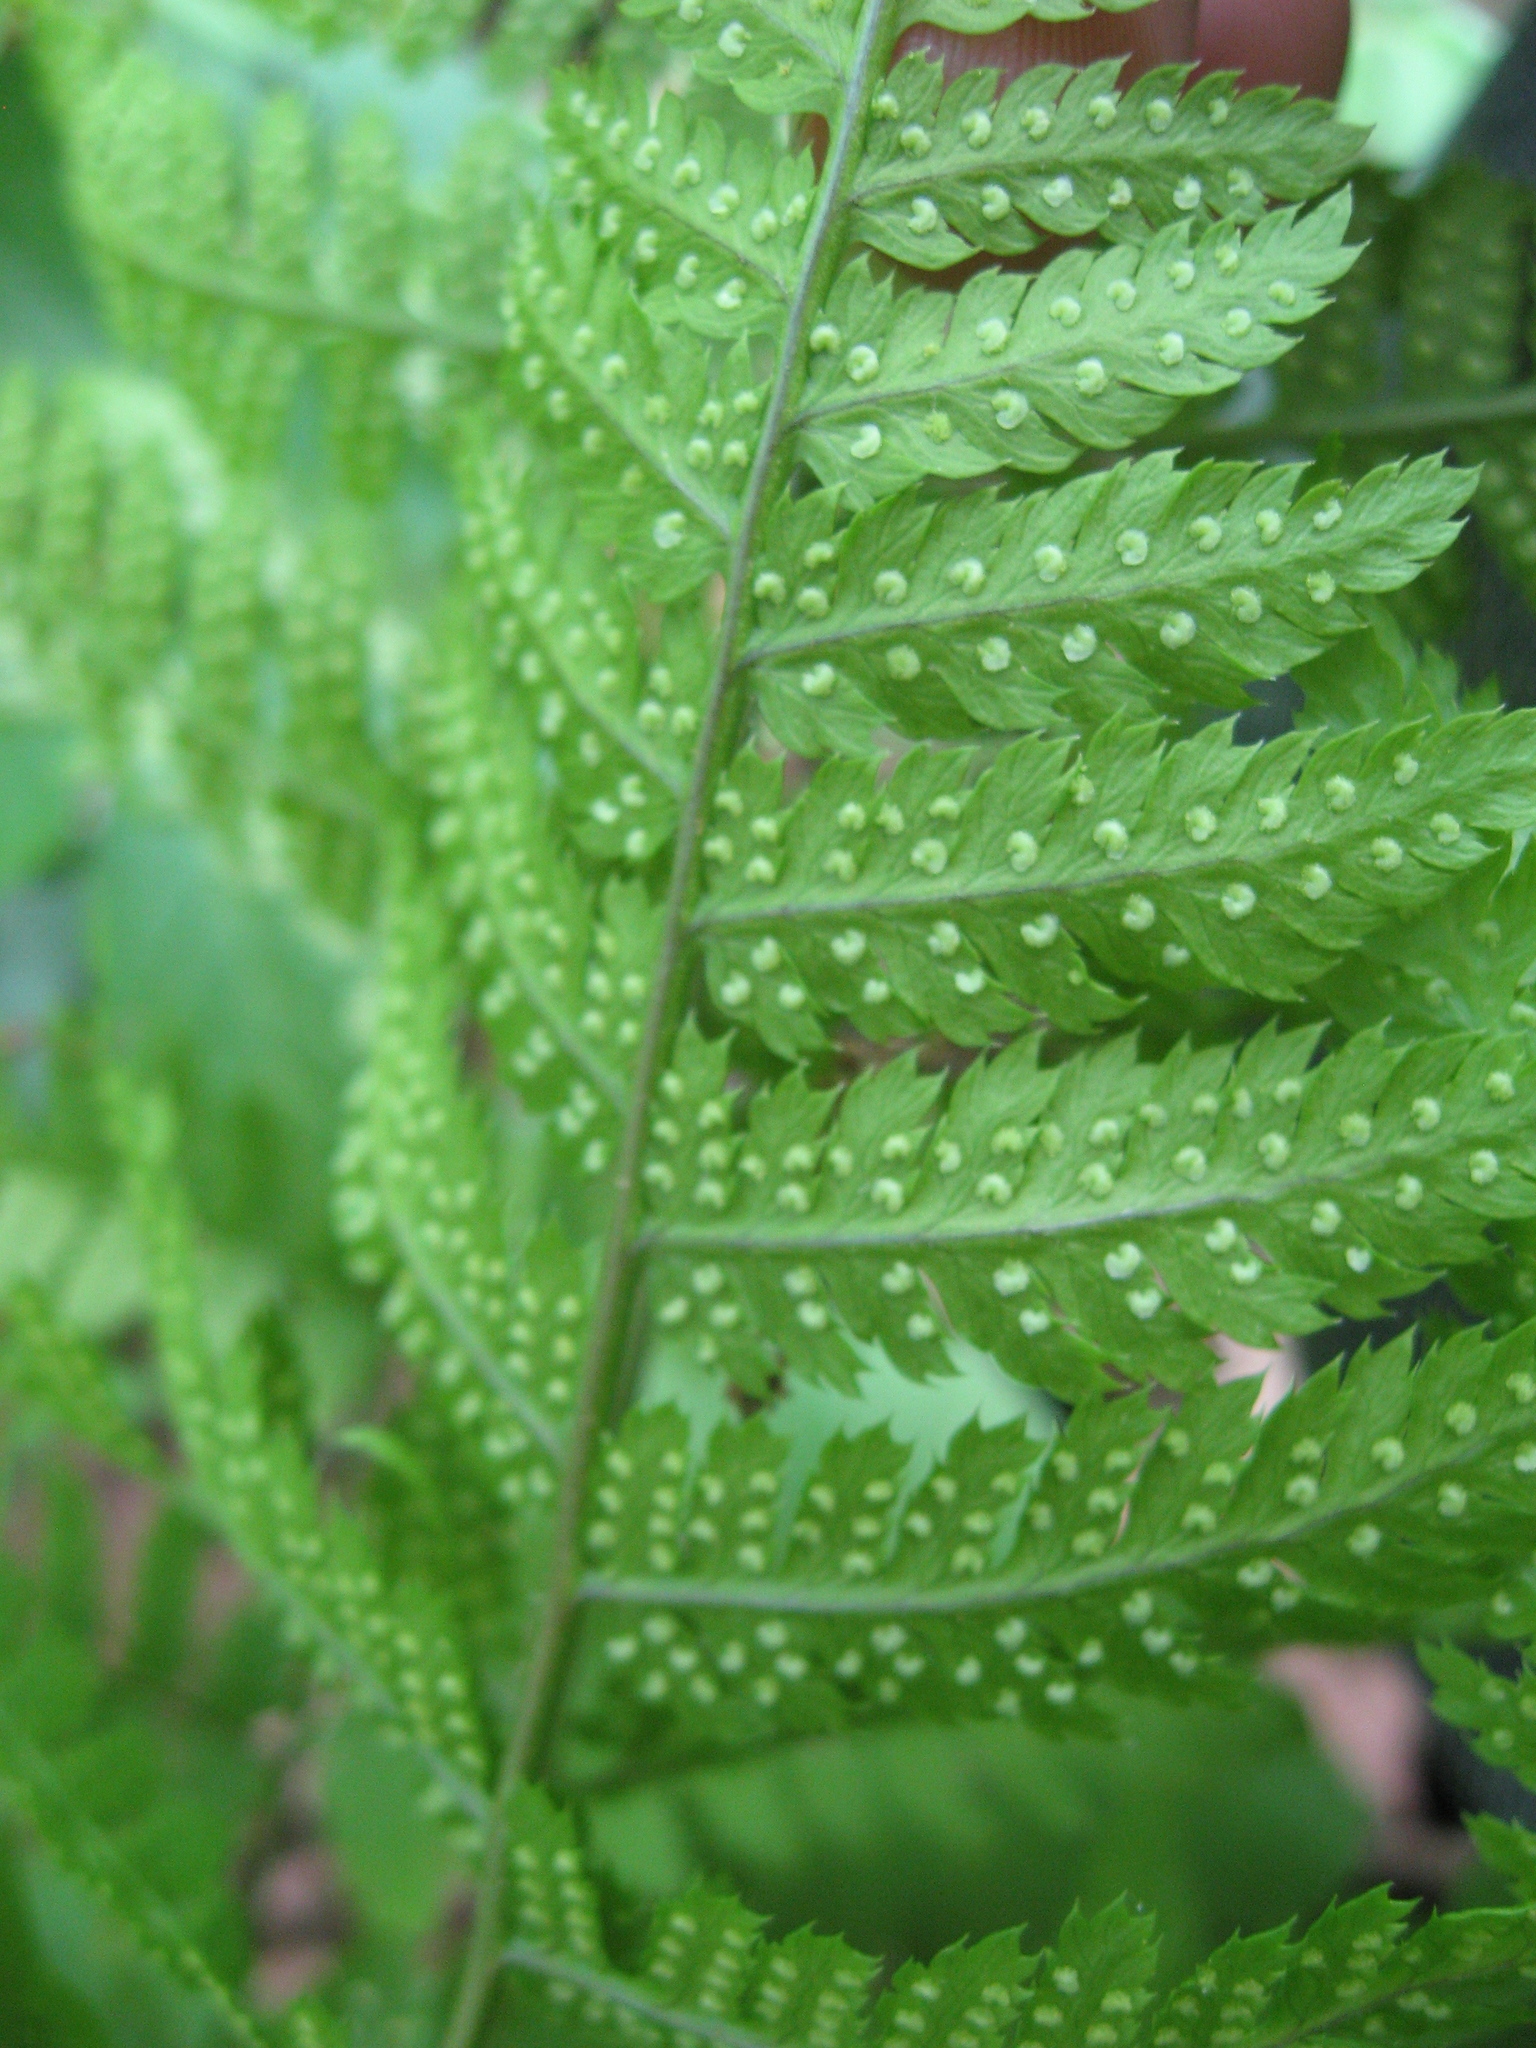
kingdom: Plantae
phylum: Tracheophyta
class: Polypodiopsida
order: Polypodiales
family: Dryopteridaceae
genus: Dryopteris
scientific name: Dryopteris carthusiana
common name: Narrow buckler-fern
